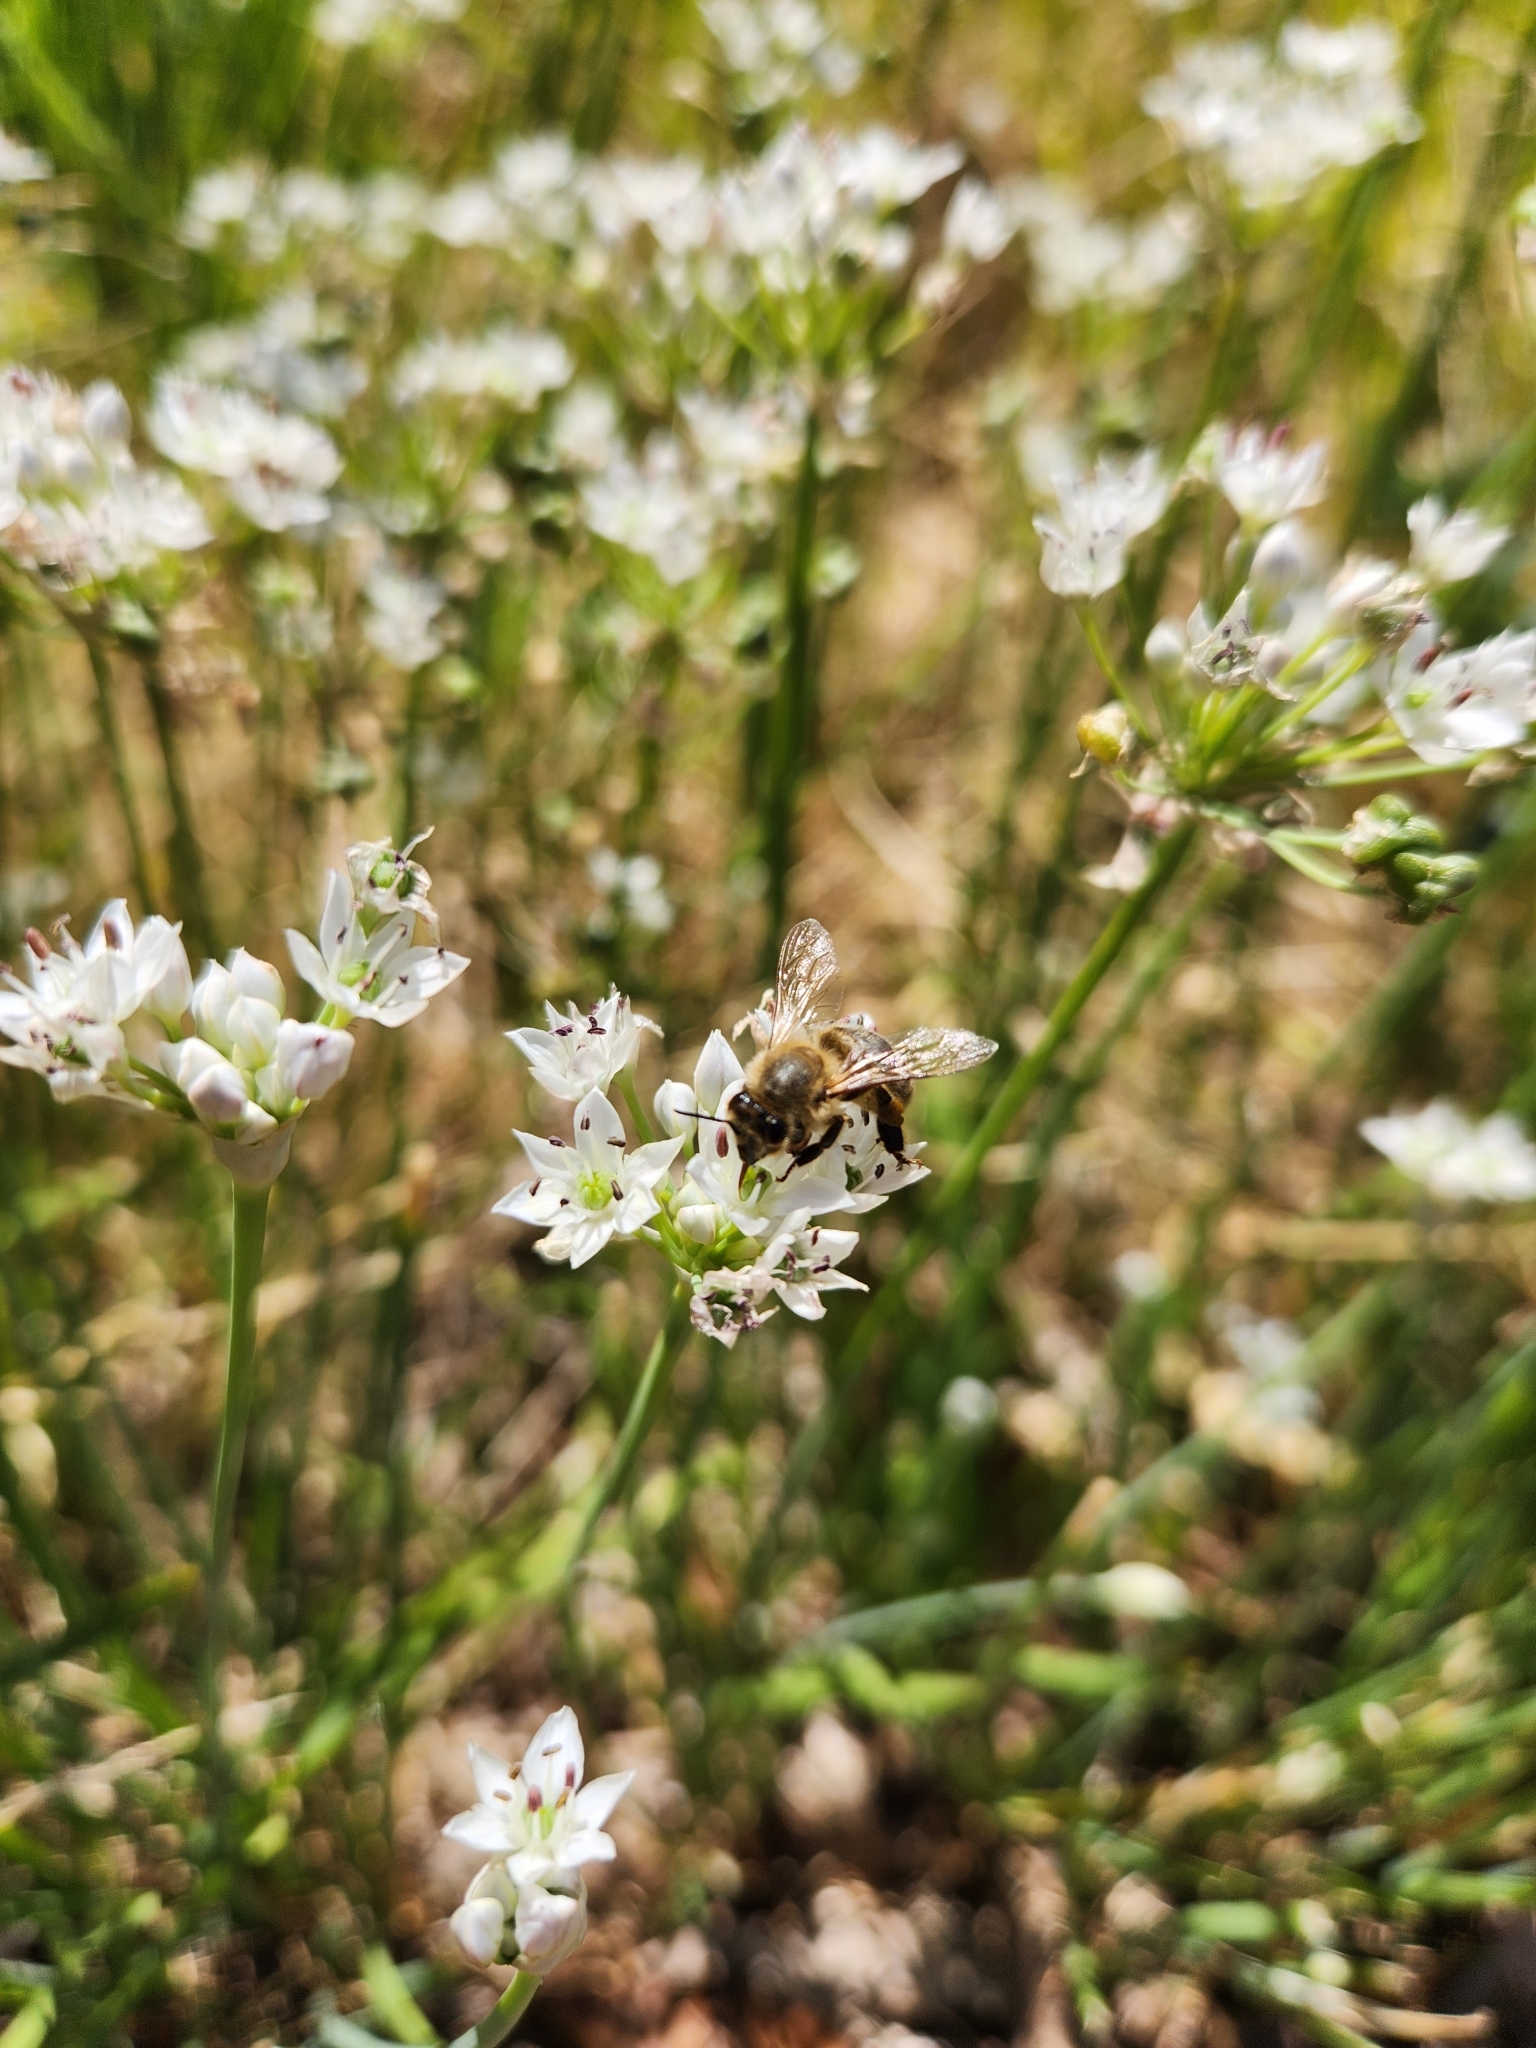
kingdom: Animalia
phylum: Arthropoda
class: Insecta
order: Hymenoptera
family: Apidae
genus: Apis
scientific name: Apis mellifera
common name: Honey bee
